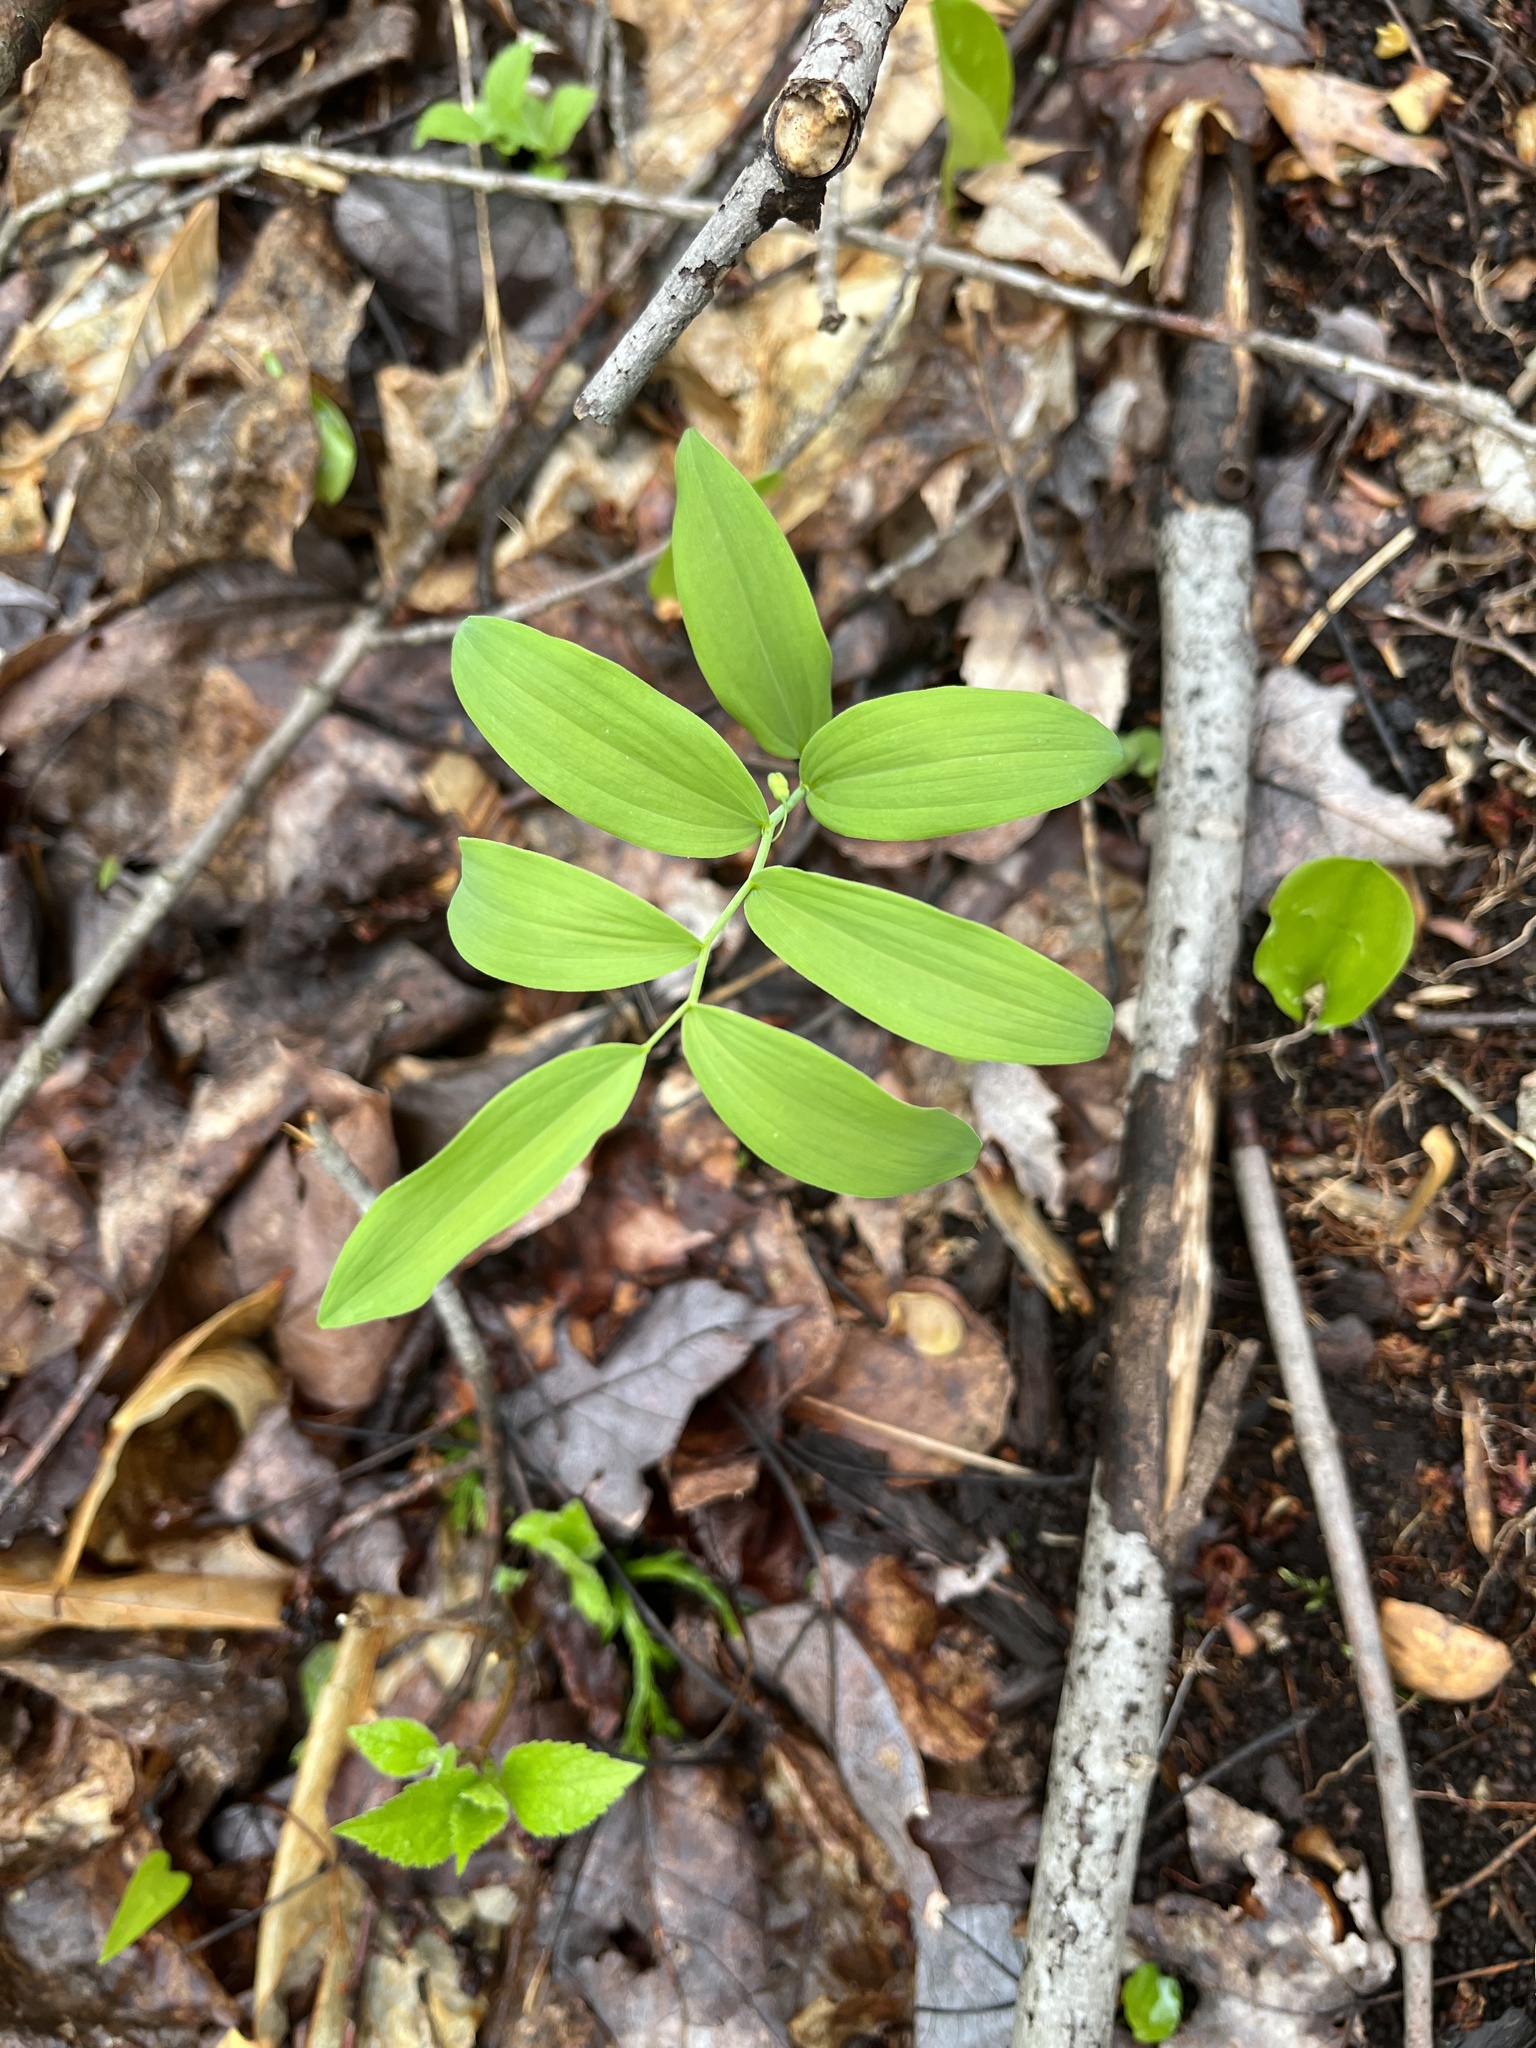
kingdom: Plantae
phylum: Tracheophyta
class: Liliopsida
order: Asparagales
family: Asparagaceae
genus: Polygonatum
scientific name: Polygonatum pubescens
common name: Downy solomon's seal
